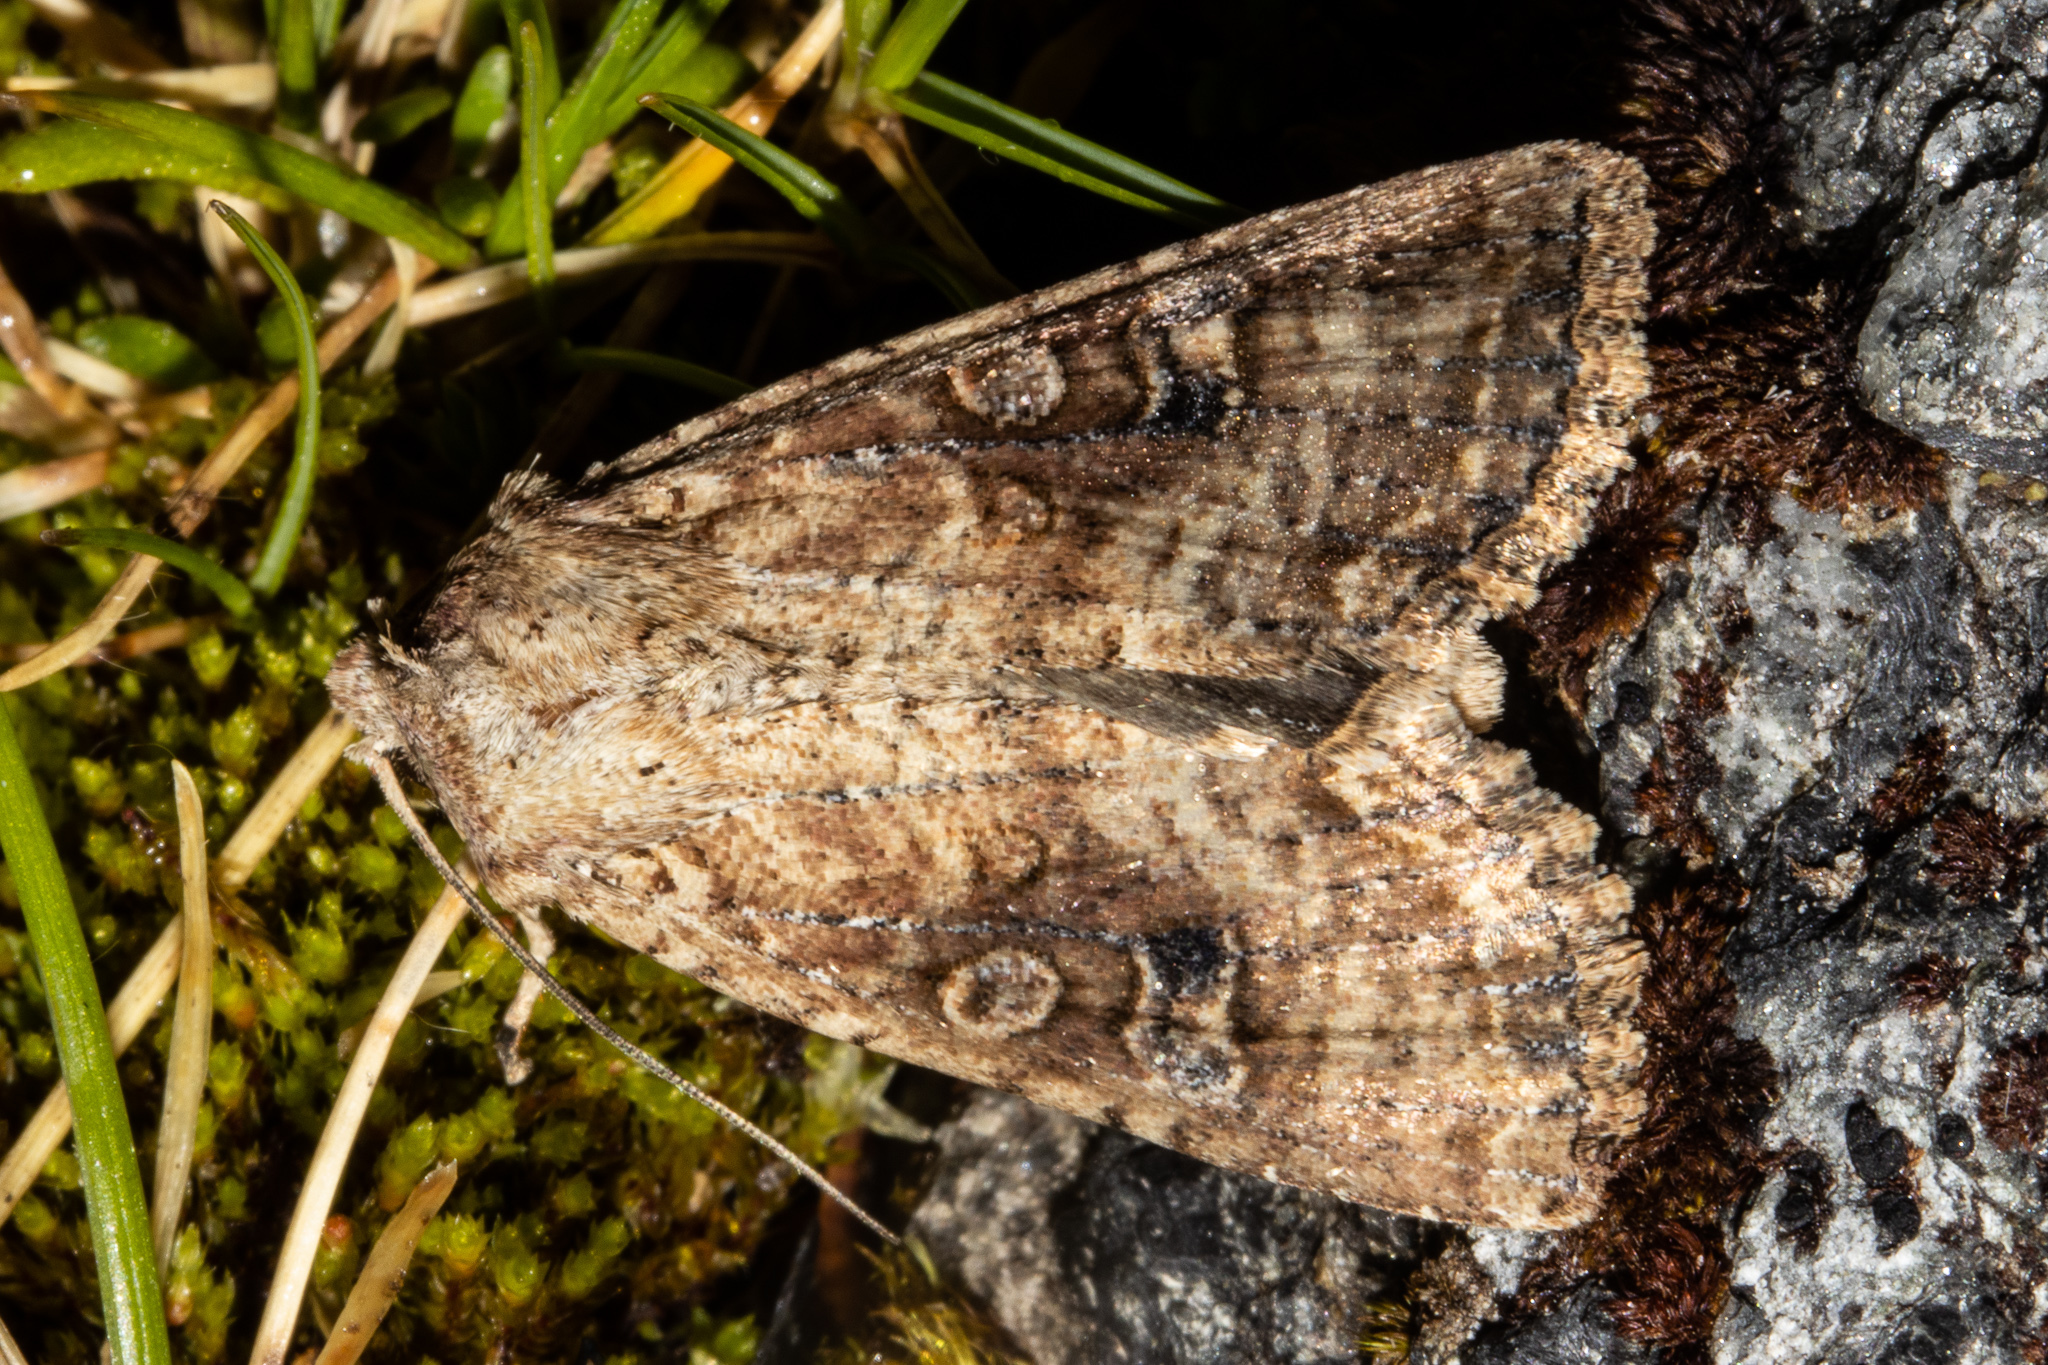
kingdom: Animalia
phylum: Arthropoda
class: Insecta
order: Lepidoptera
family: Noctuidae
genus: Ichneutica
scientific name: Ichneutica morosa
